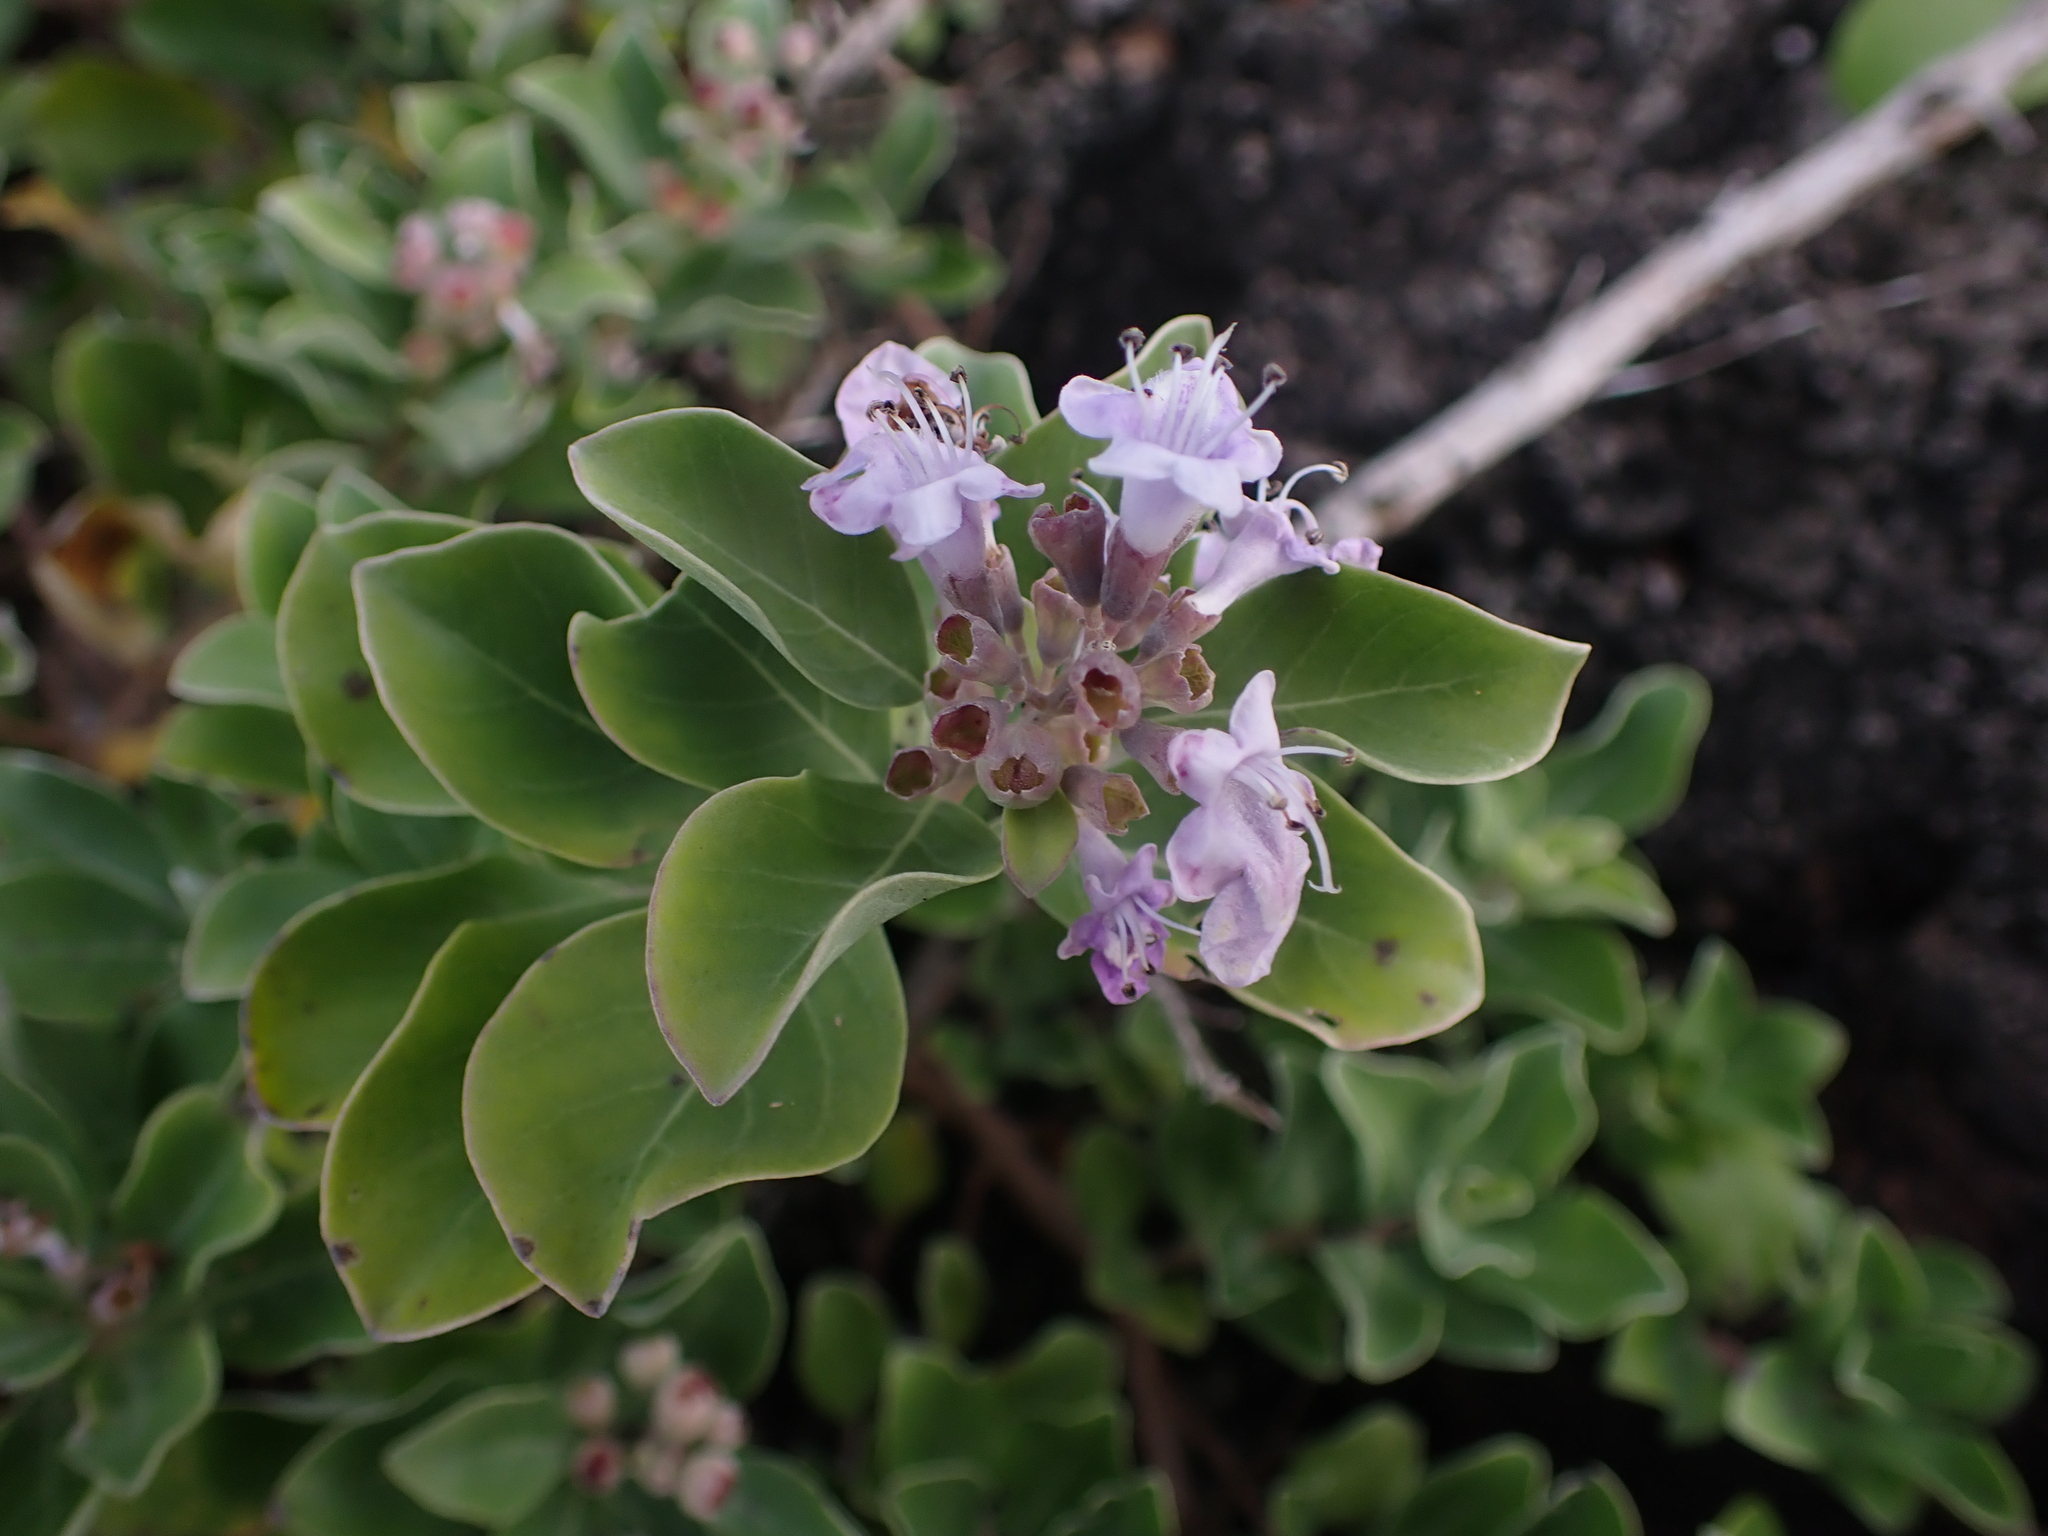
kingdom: Plantae
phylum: Tracheophyta
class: Magnoliopsida
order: Lamiales
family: Lamiaceae
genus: Vitex
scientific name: Vitex rotundifolia
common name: Beach vitex
